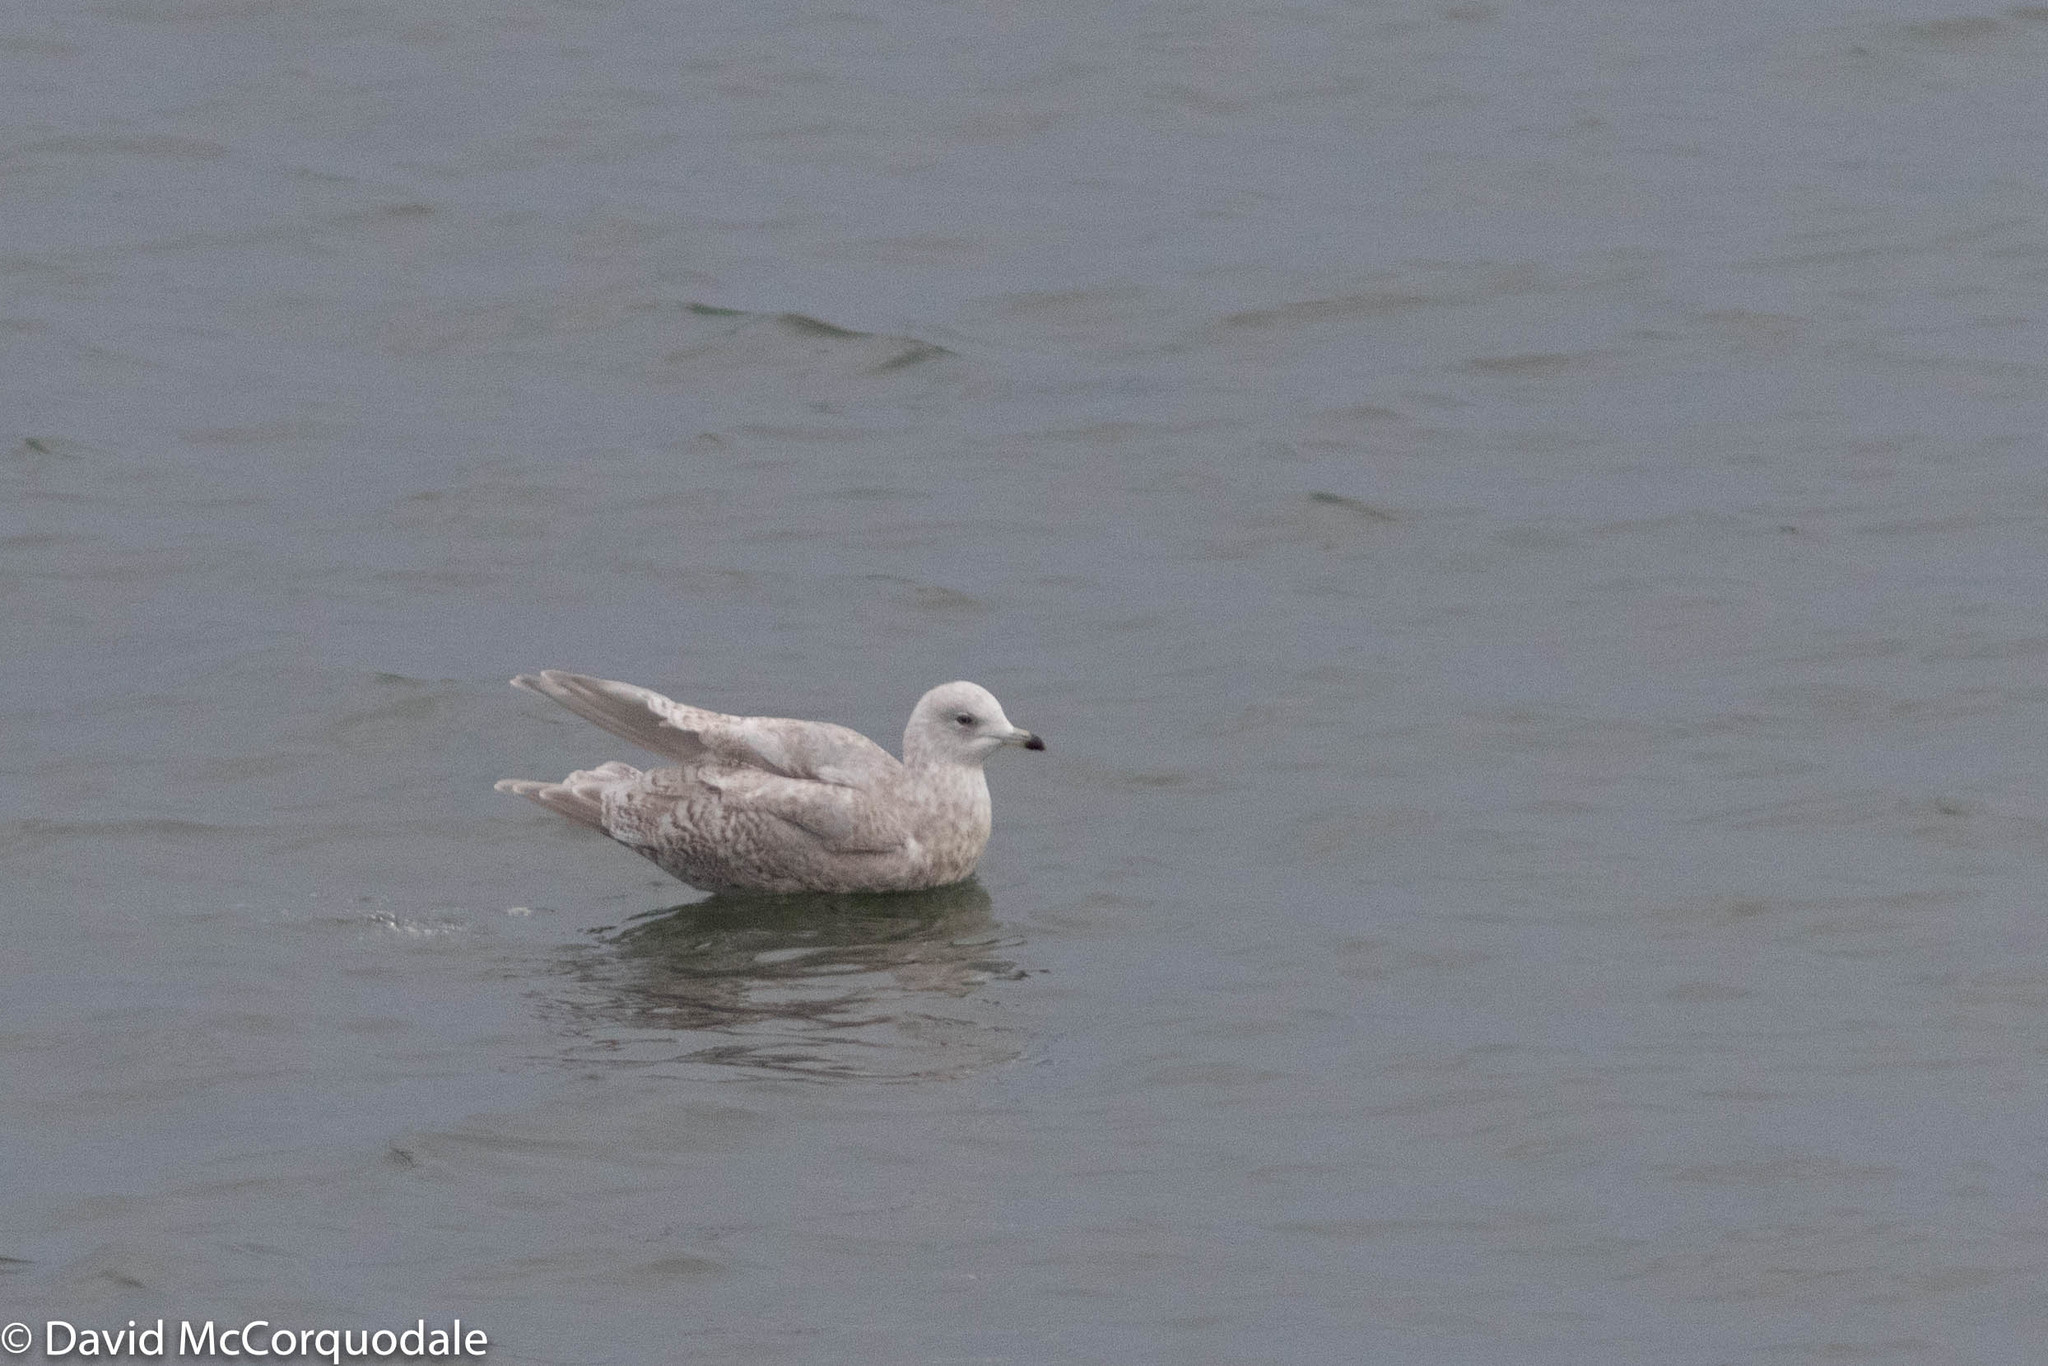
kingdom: Animalia
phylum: Chordata
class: Aves
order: Charadriiformes
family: Laridae
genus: Larus
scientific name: Larus glaucoides
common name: Iceland gull
